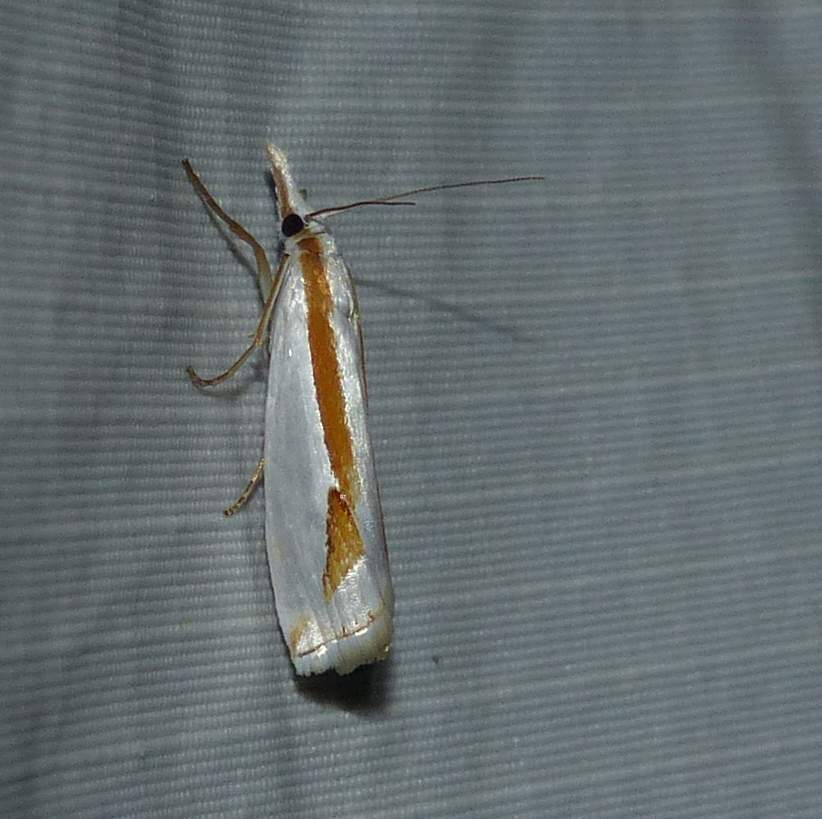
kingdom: Animalia
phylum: Arthropoda
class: Insecta
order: Lepidoptera
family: Crambidae
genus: Crambus
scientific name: Crambus girardellus
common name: Girard's grass-veneer
